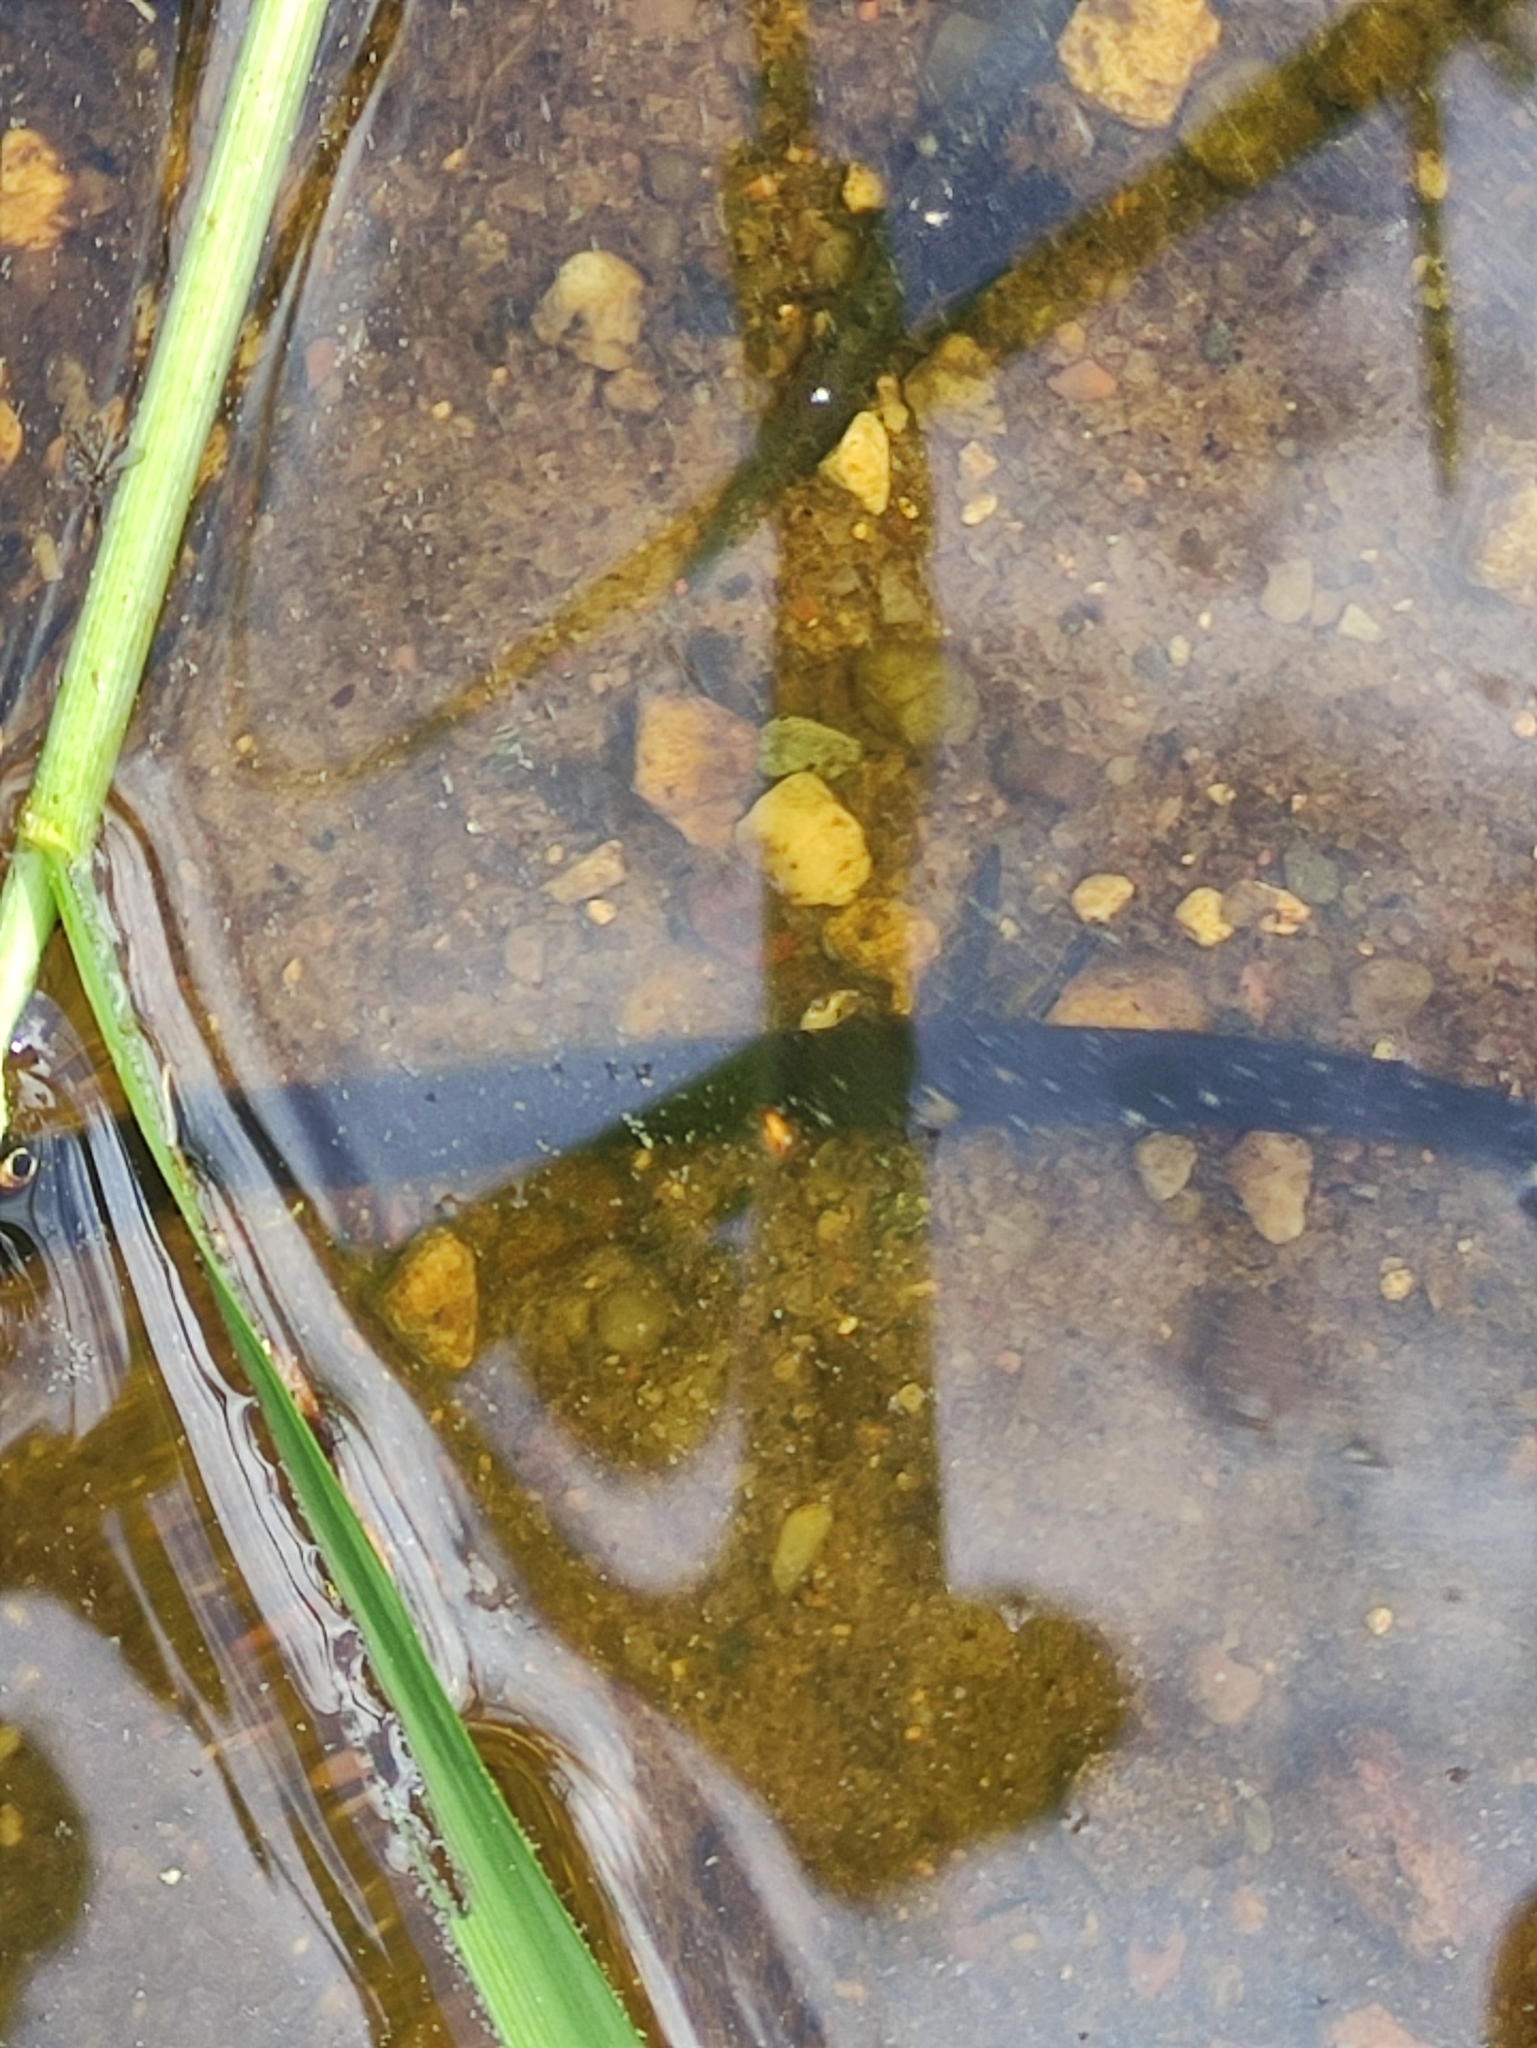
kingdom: Animalia
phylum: Annelida
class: Clitellata
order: Arhynchobdellida
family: Haemopidae
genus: Haemopis
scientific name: Haemopis sanguisuga
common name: Horse leech
